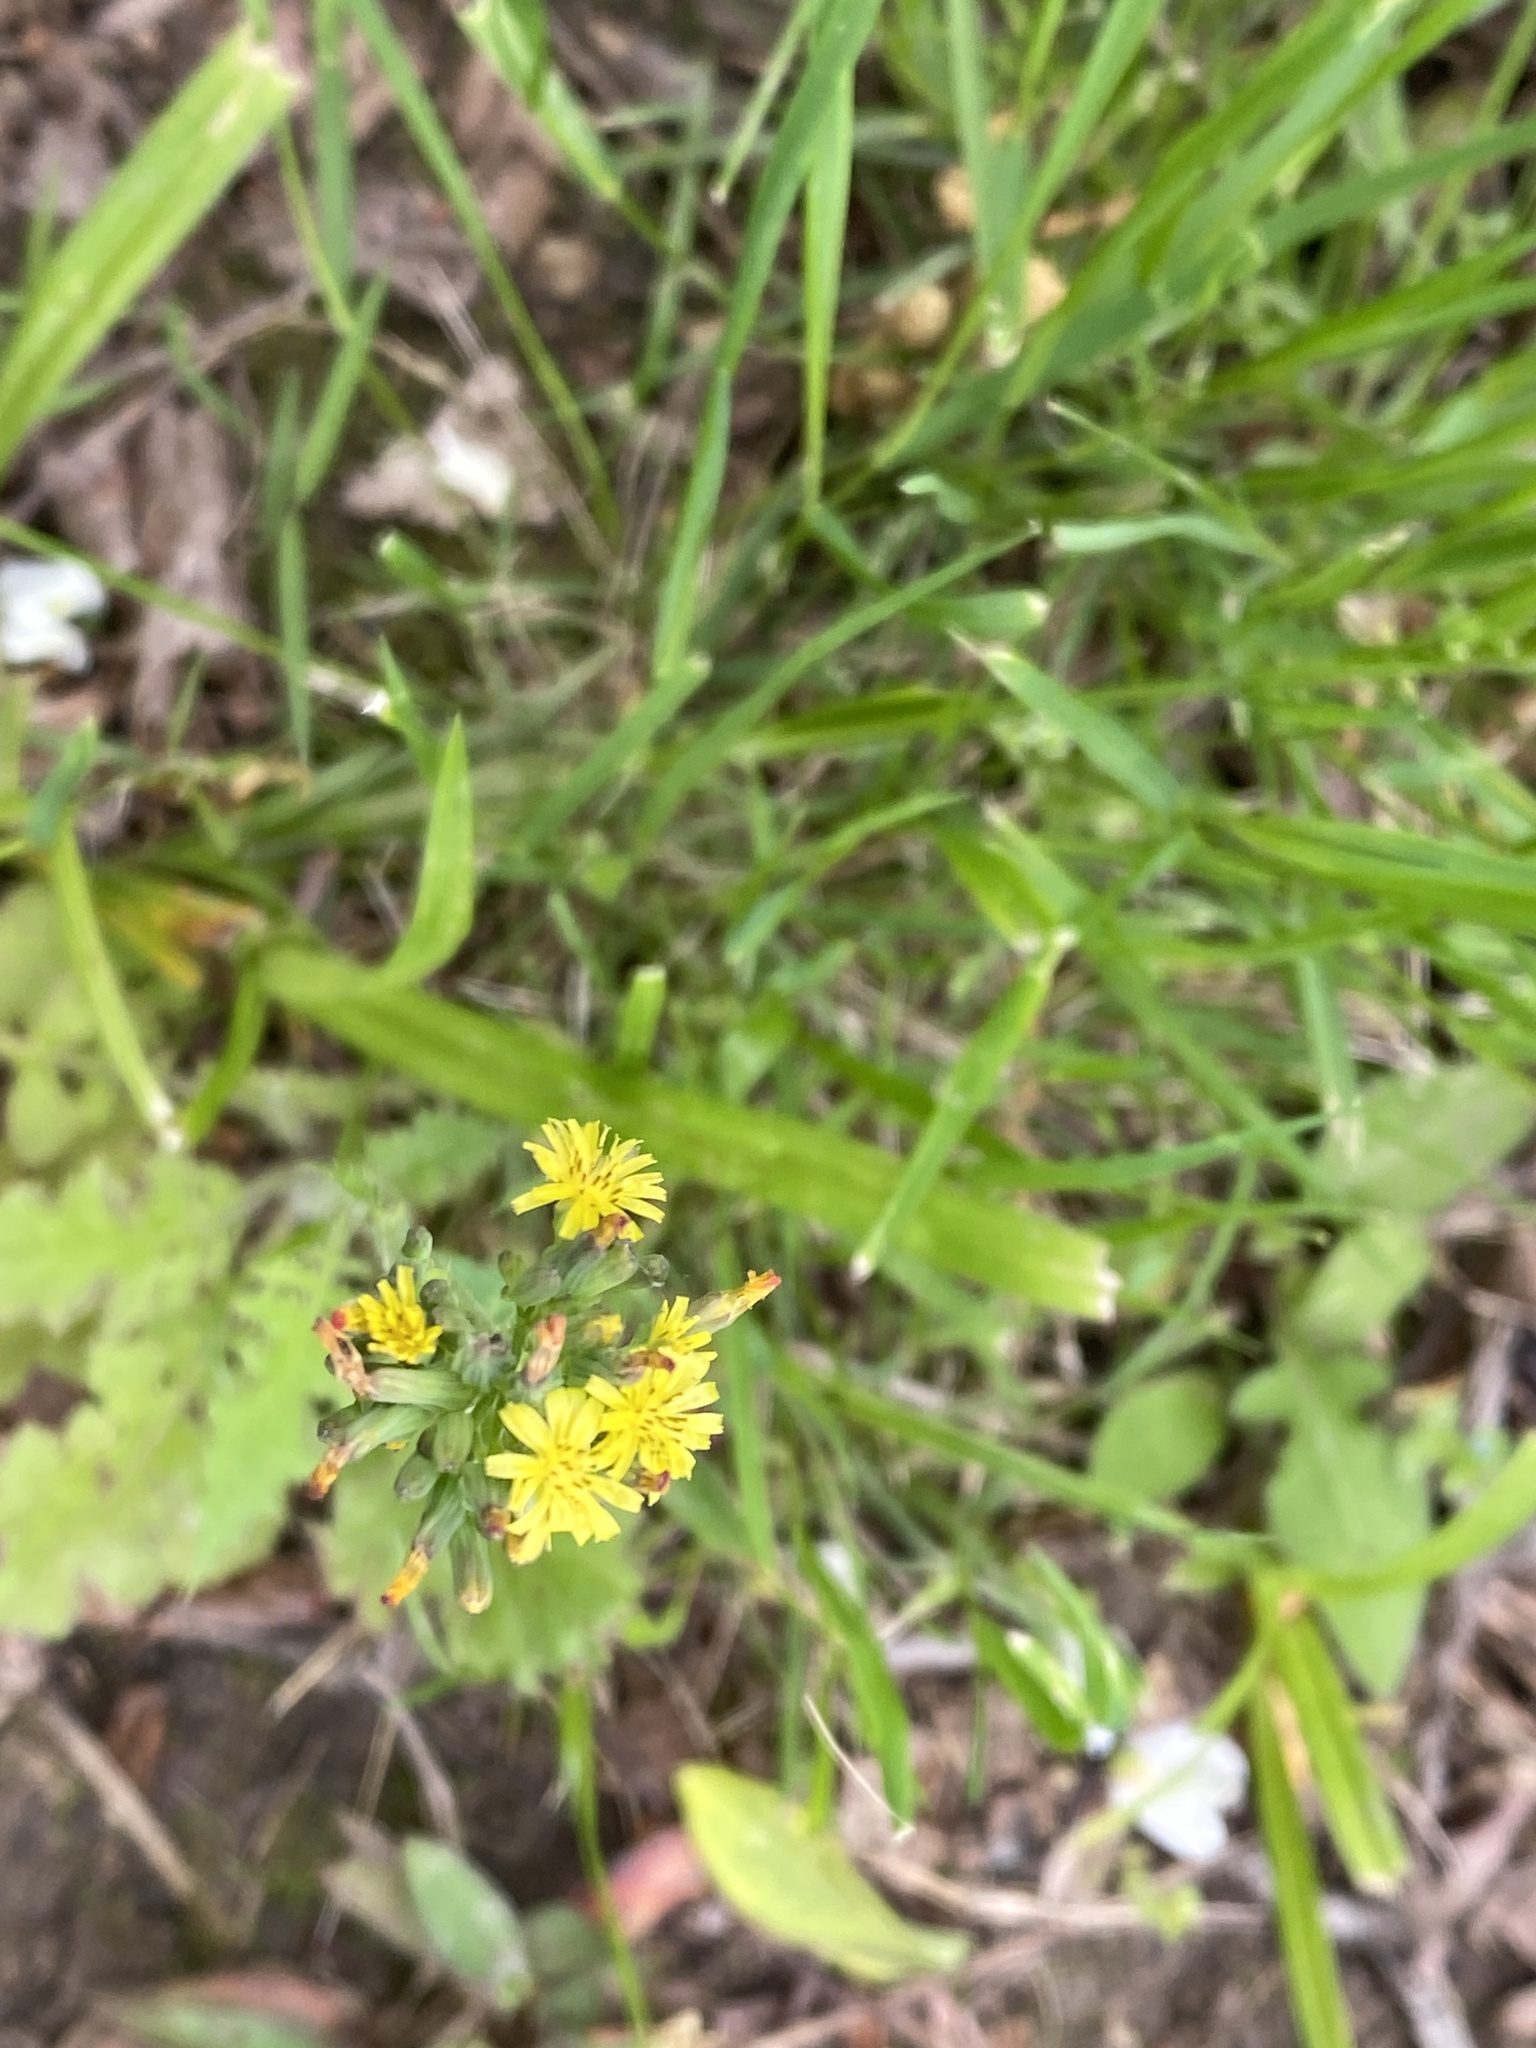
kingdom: Plantae
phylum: Tracheophyta
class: Magnoliopsida
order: Asterales
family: Asteraceae
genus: Youngia
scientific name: Youngia japonica
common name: Oriental false hawksbeard
